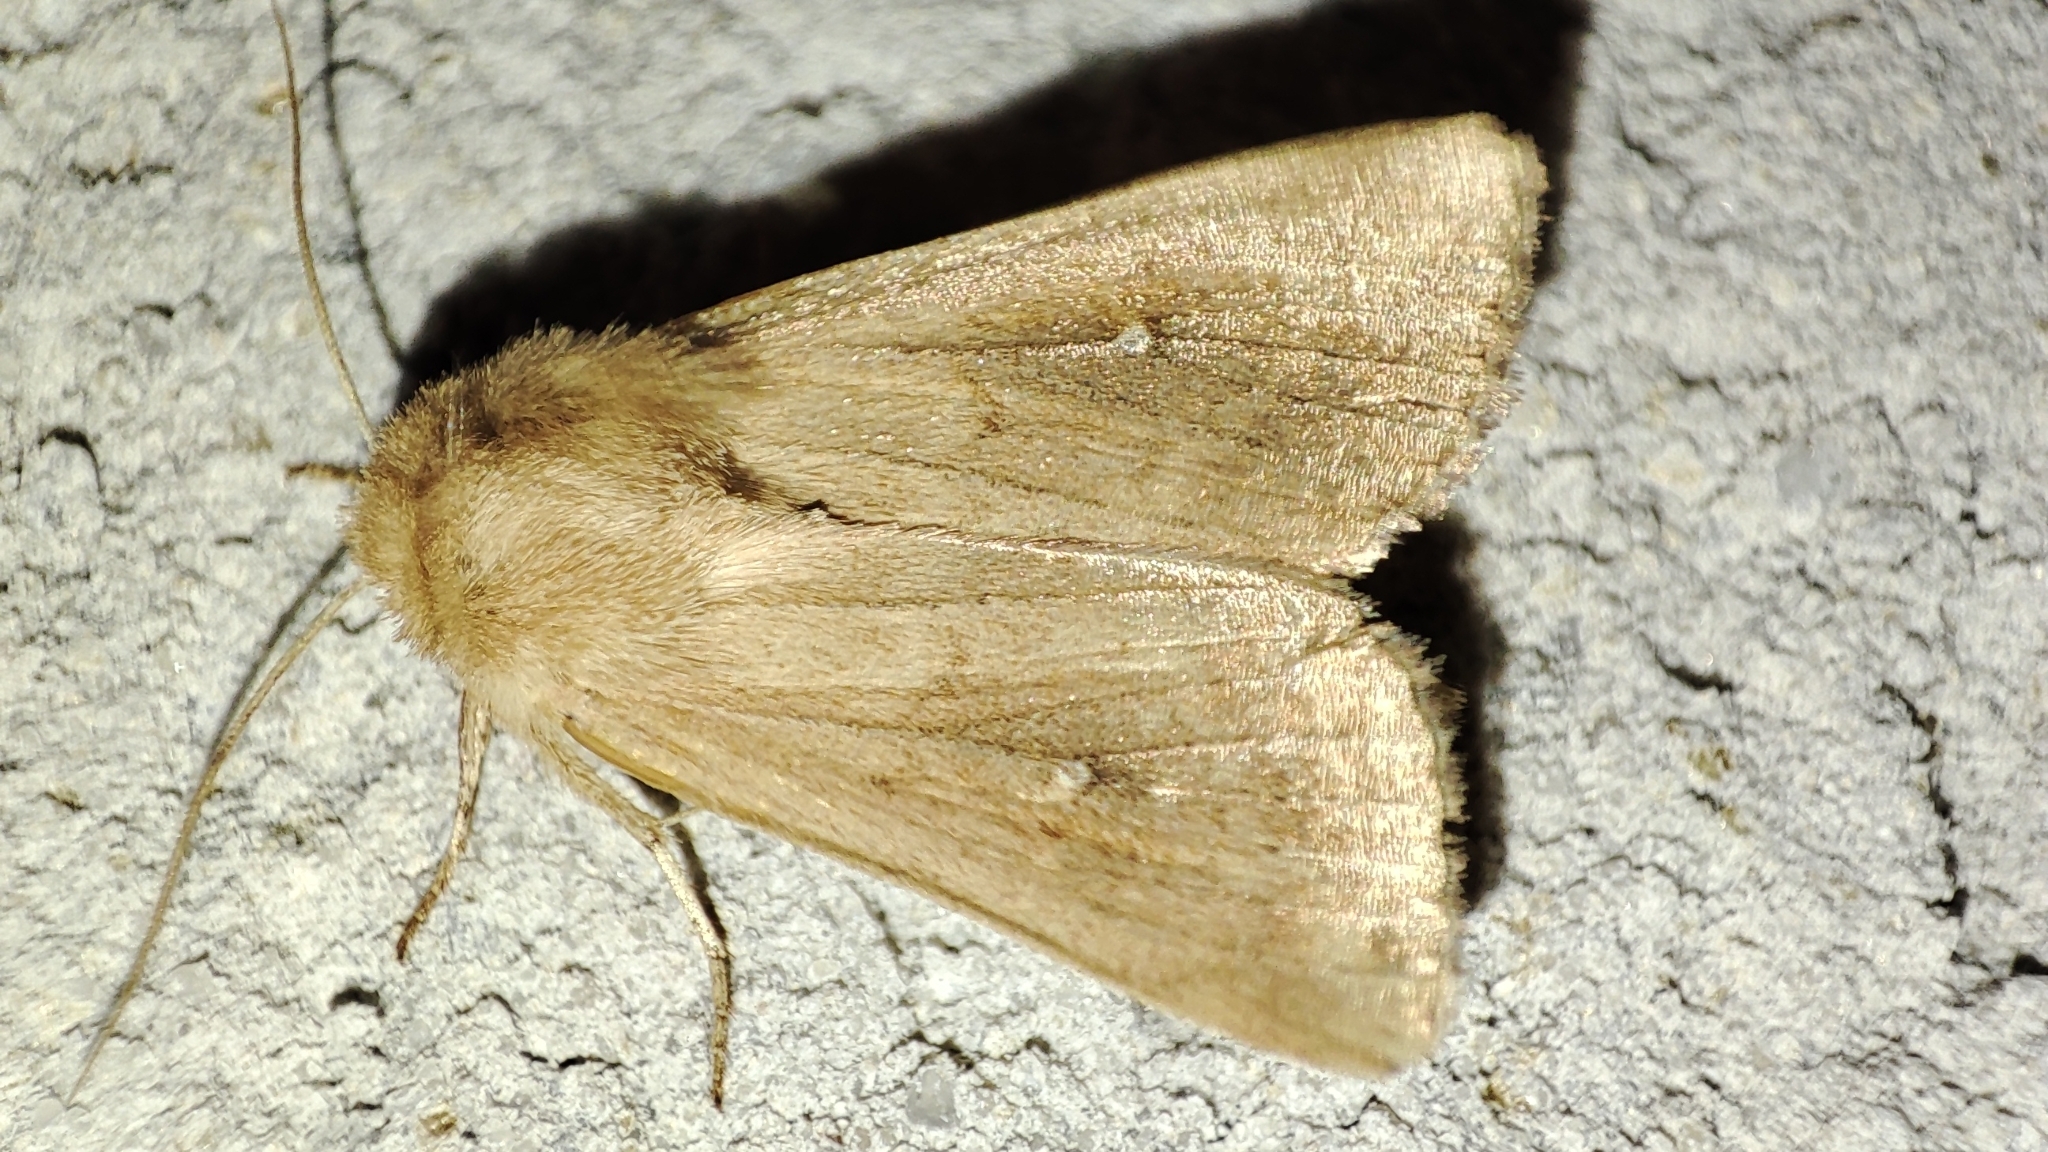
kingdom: Animalia
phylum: Arthropoda
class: Insecta
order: Lepidoptera
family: Noctuidae
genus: Mythimna
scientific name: Mythimna ferrago
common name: Clay
